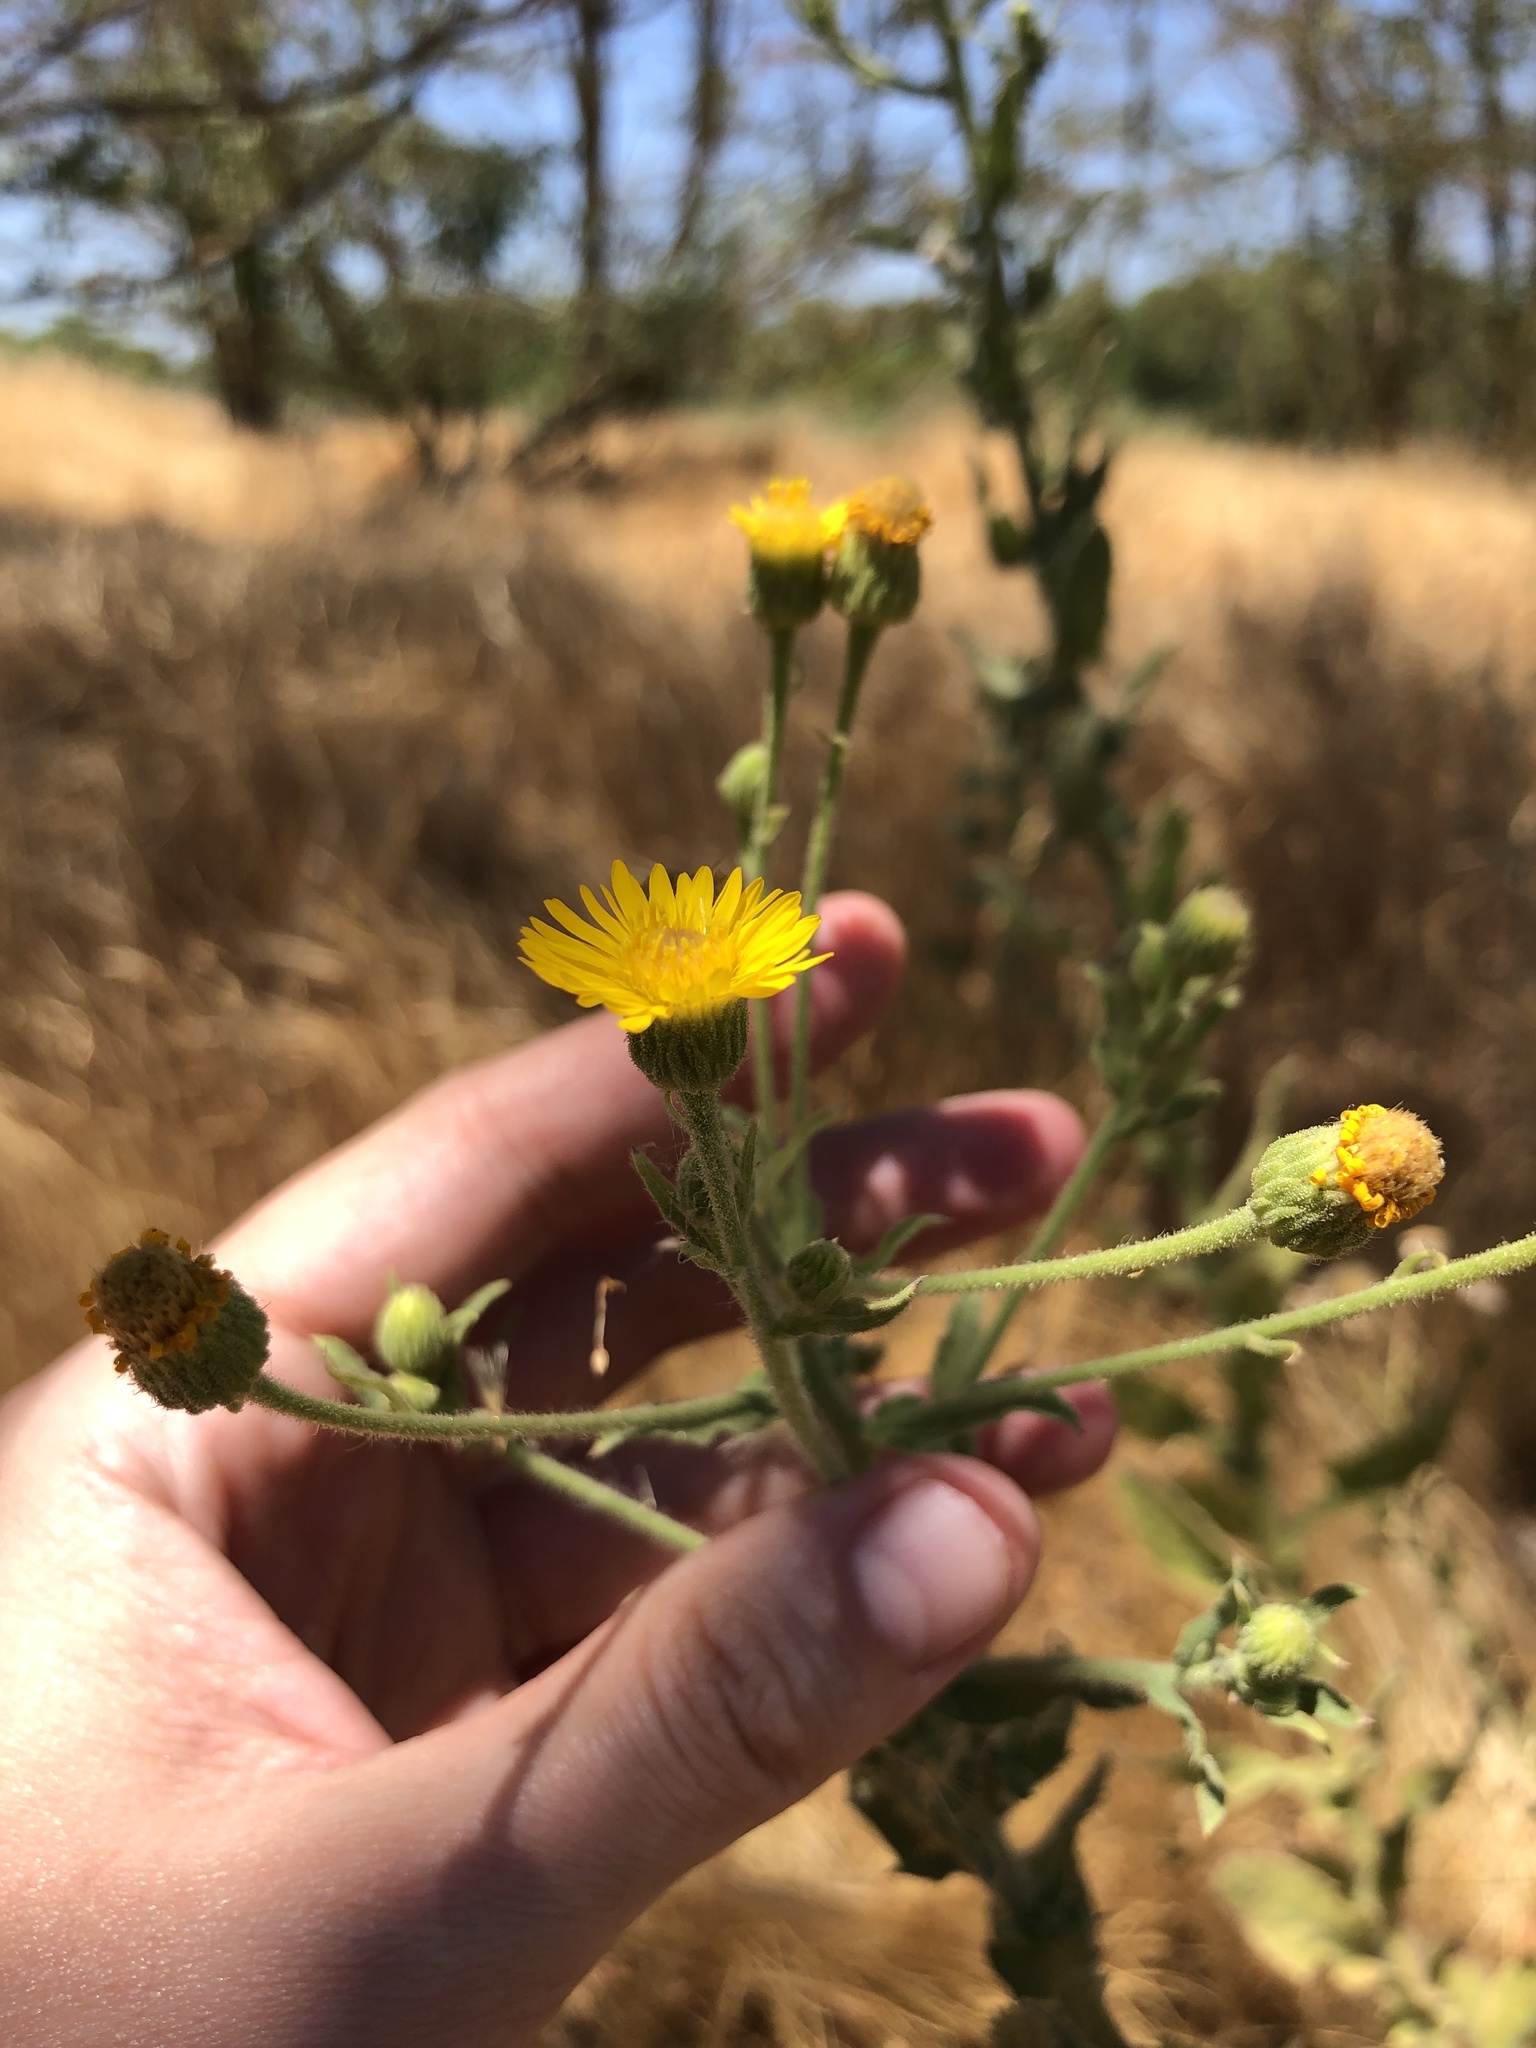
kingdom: Plantae
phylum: Tracheophyta
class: Magnoliopsida
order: Asterales
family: Asteraceae
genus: Heterotheca
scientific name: Heterotheca grandiflora
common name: Telegraphweed
